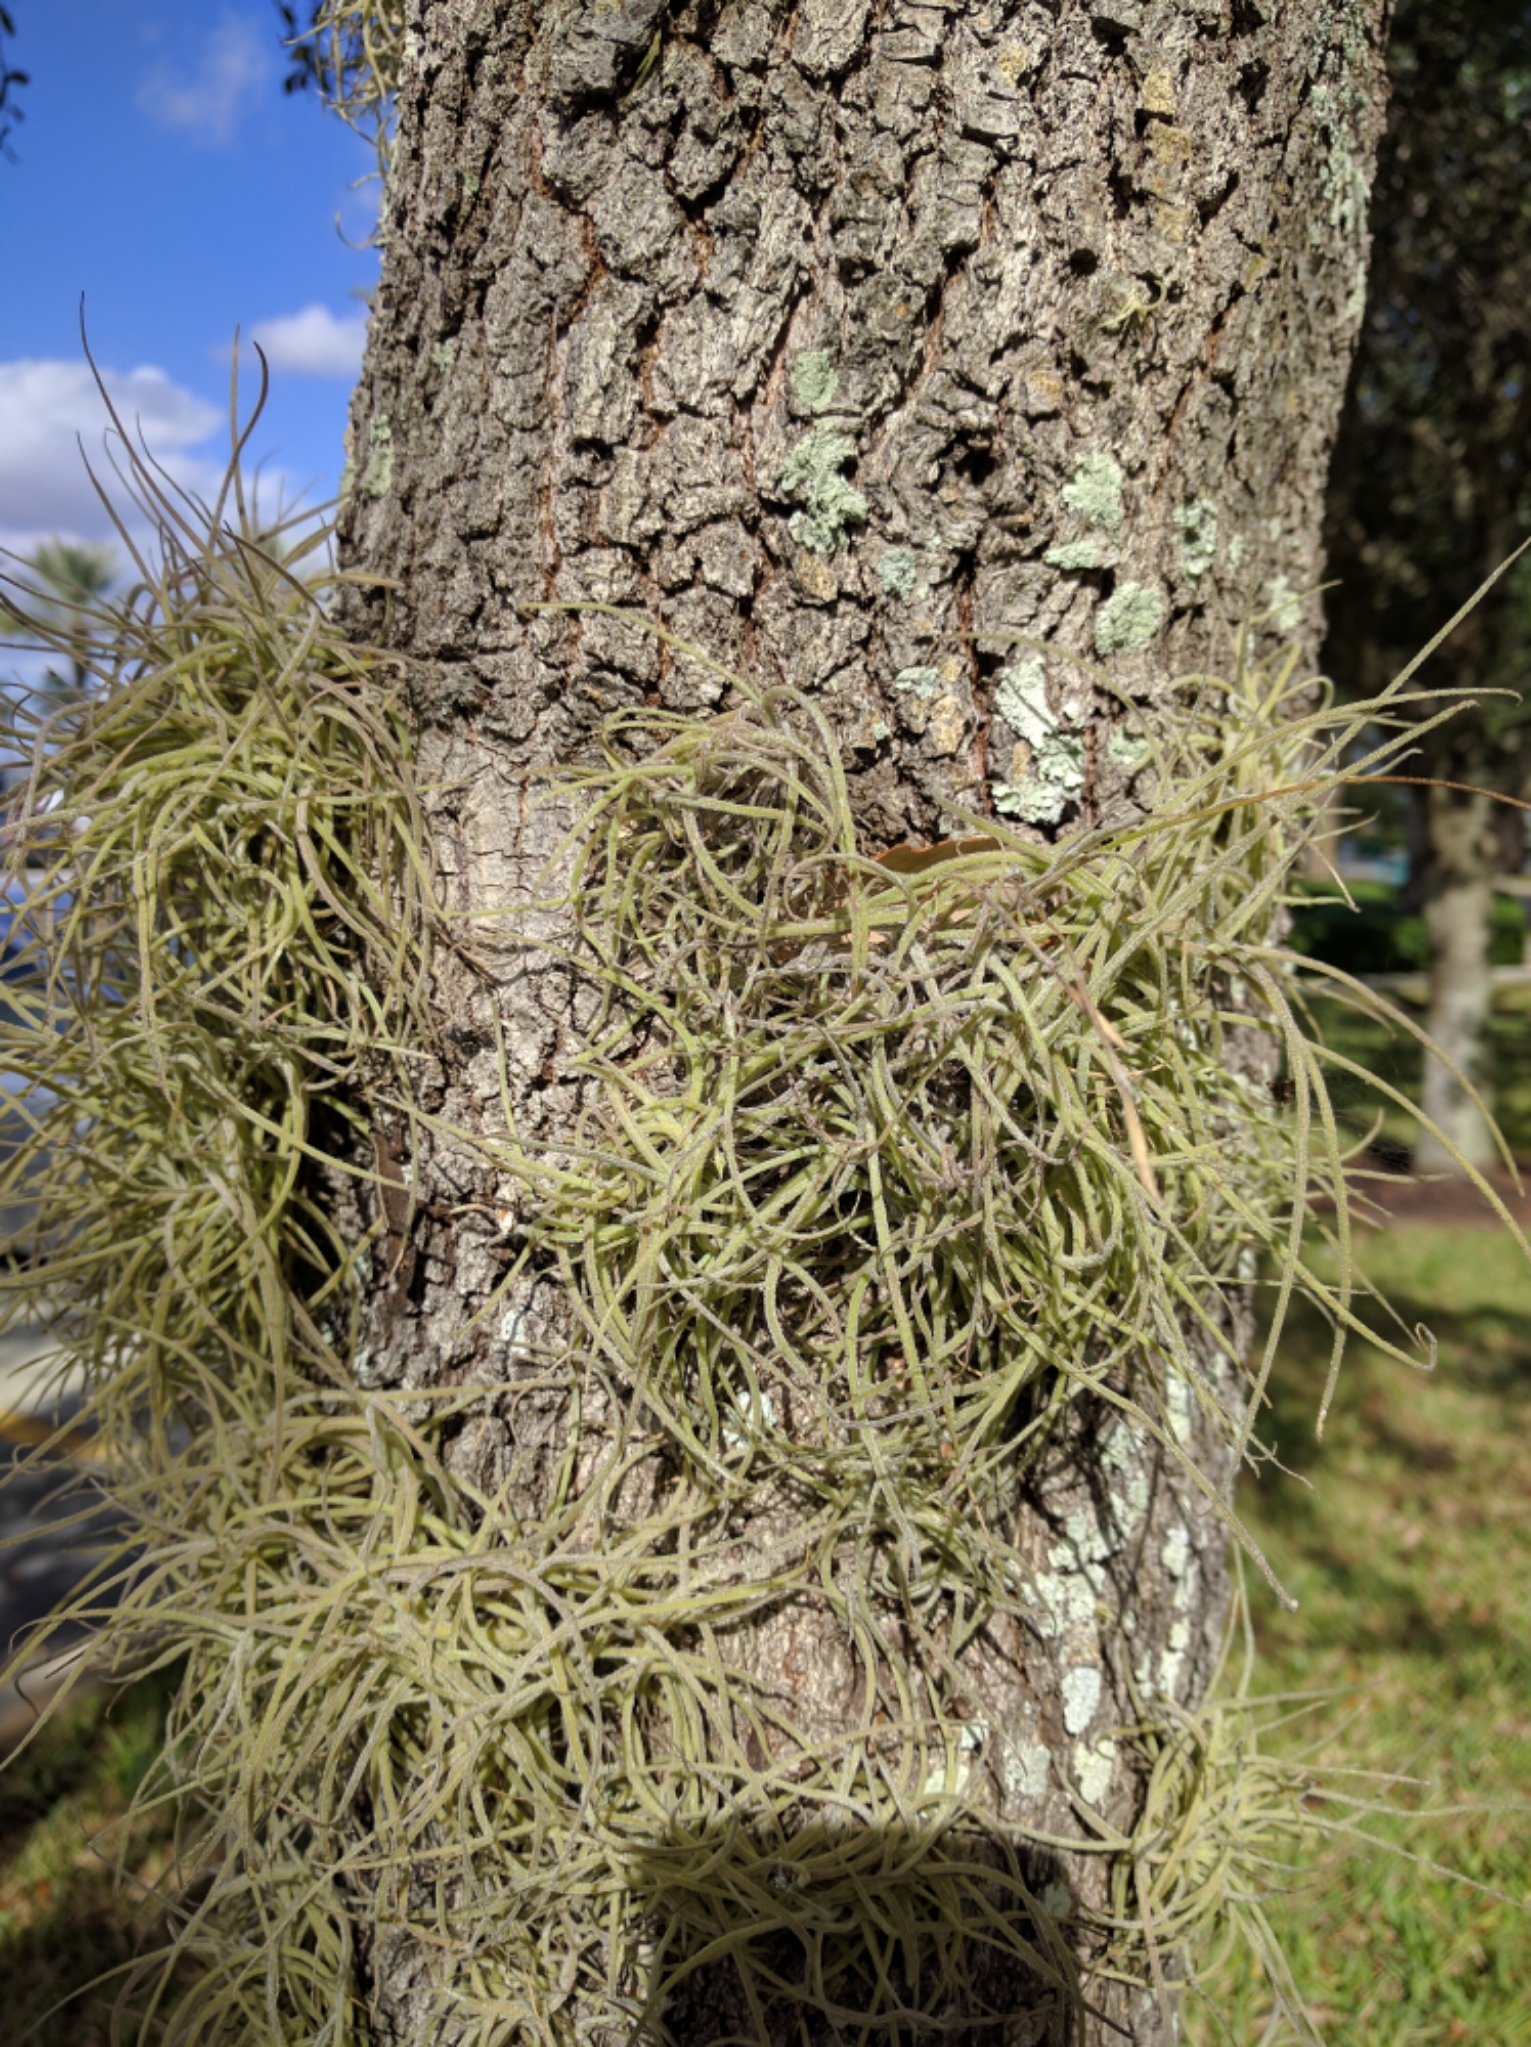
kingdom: Plantae
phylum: Tracheophyta
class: Liliopsida
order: Poales
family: Bromeliaceae
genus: Tillandsia
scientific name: Tillandsia recurvata
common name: Small ballmoss
